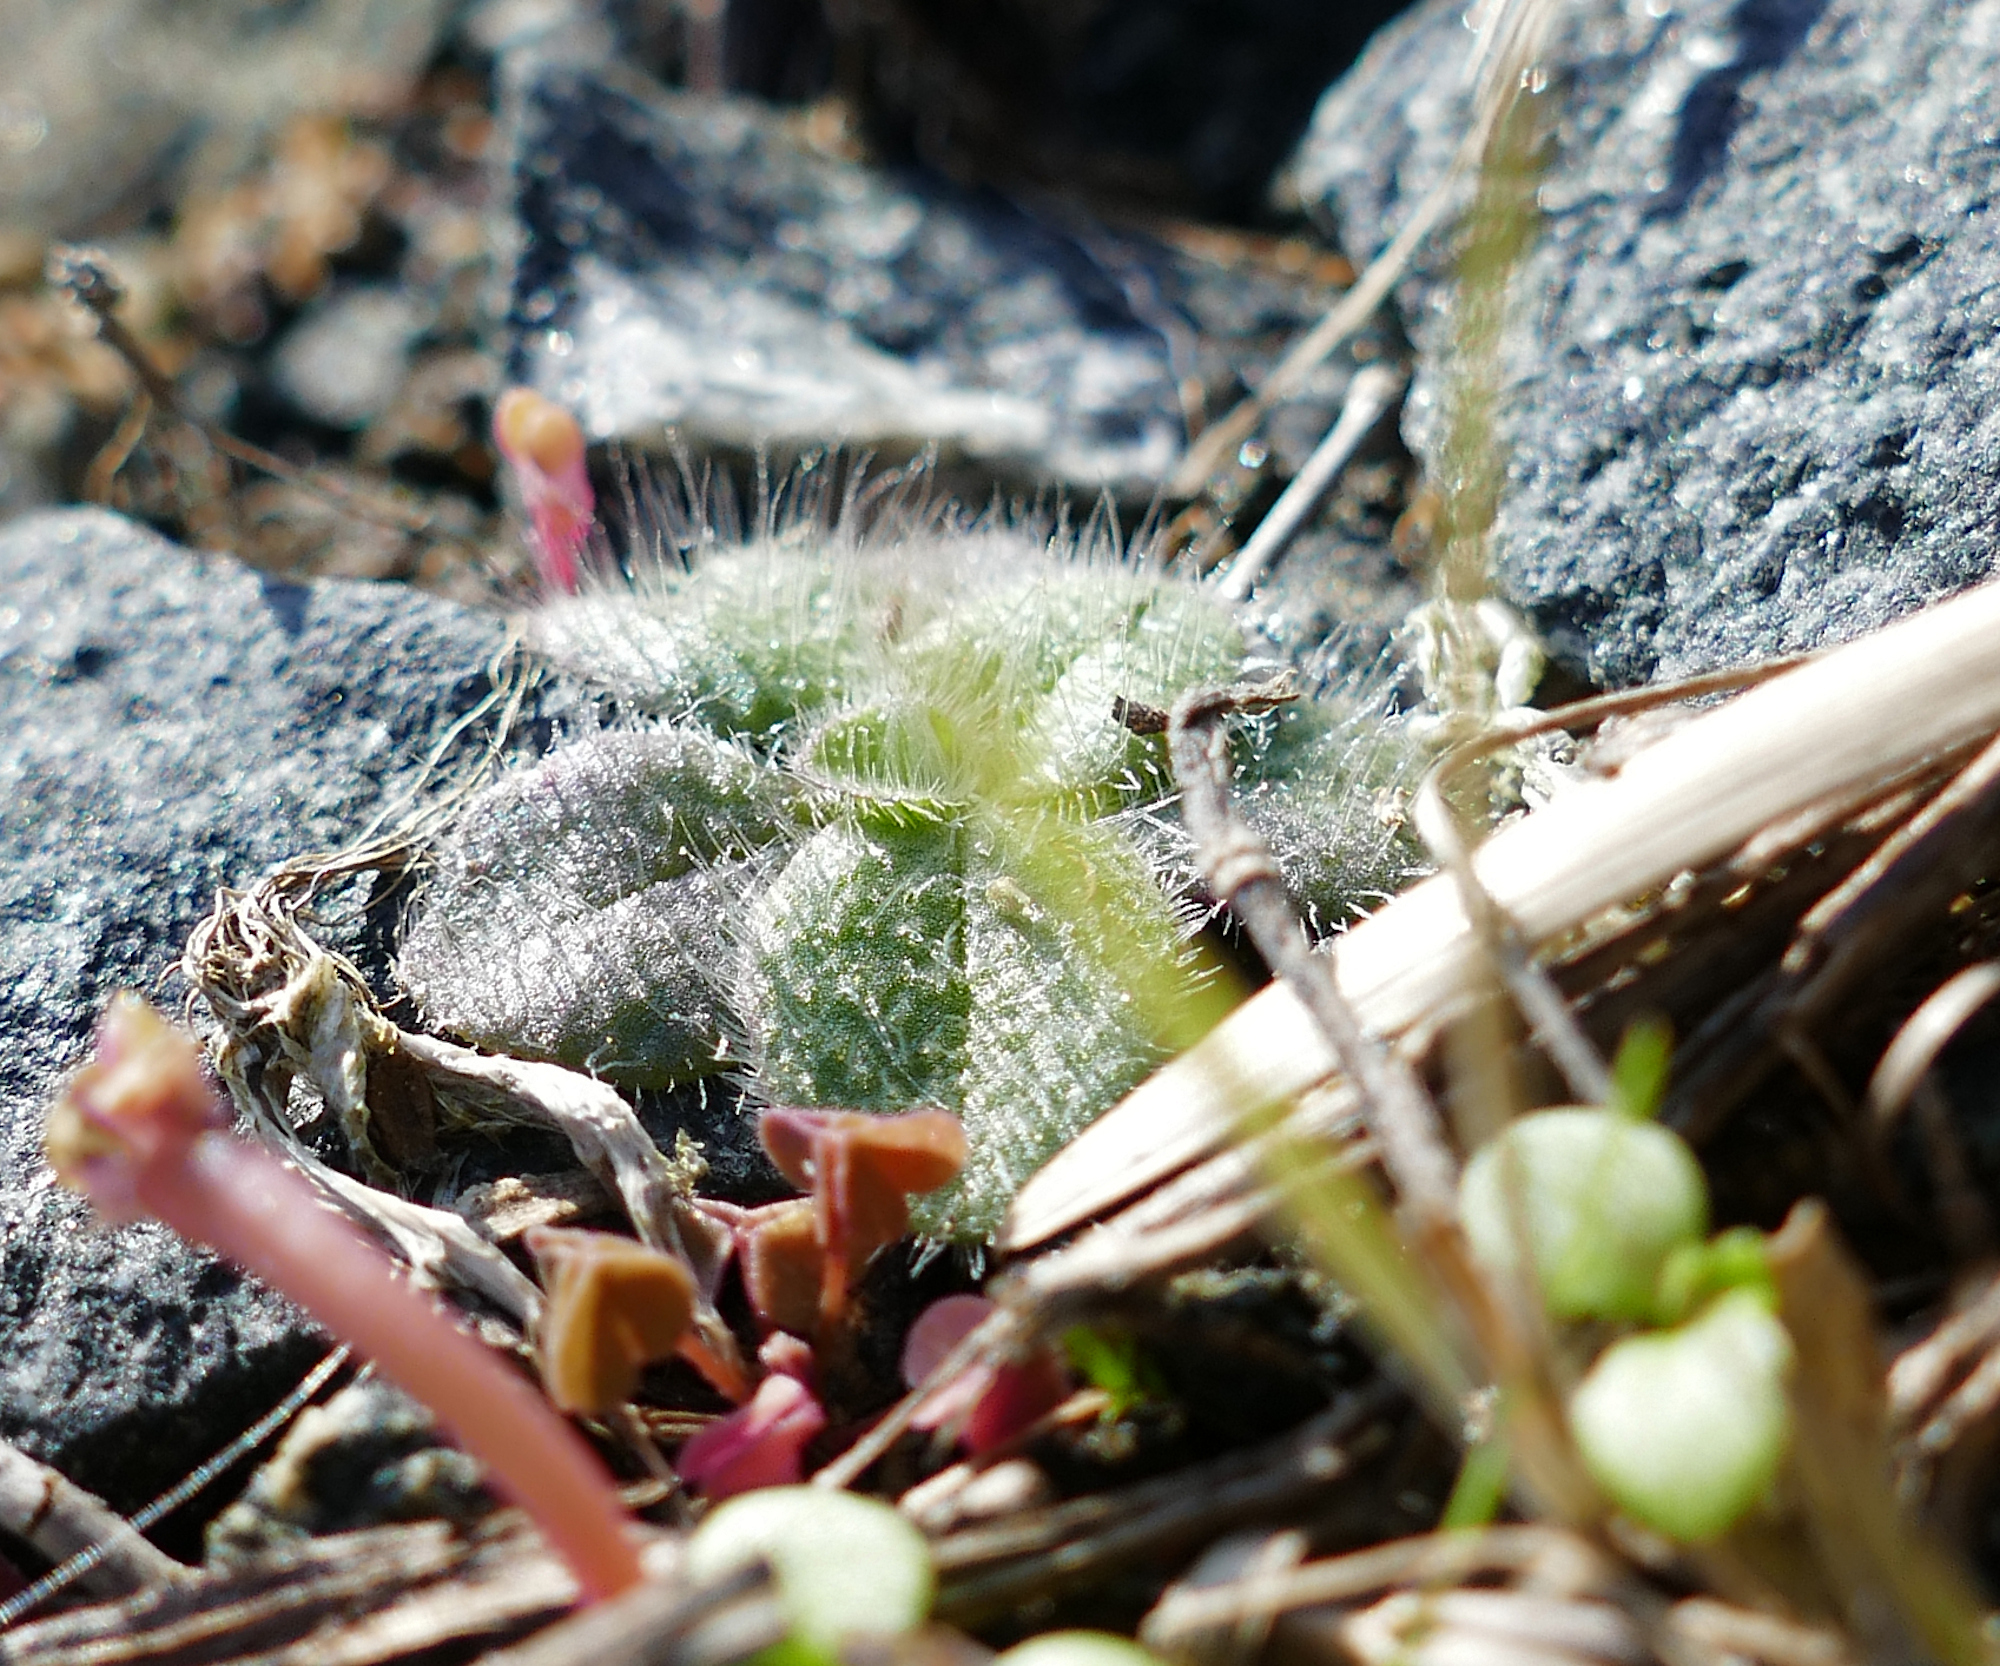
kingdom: Plantae
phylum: Tracheophyta
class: Magnoliopsida
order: Brassicales
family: Brassicaceae
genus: Draba
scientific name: Draba verna
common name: Spring draba
